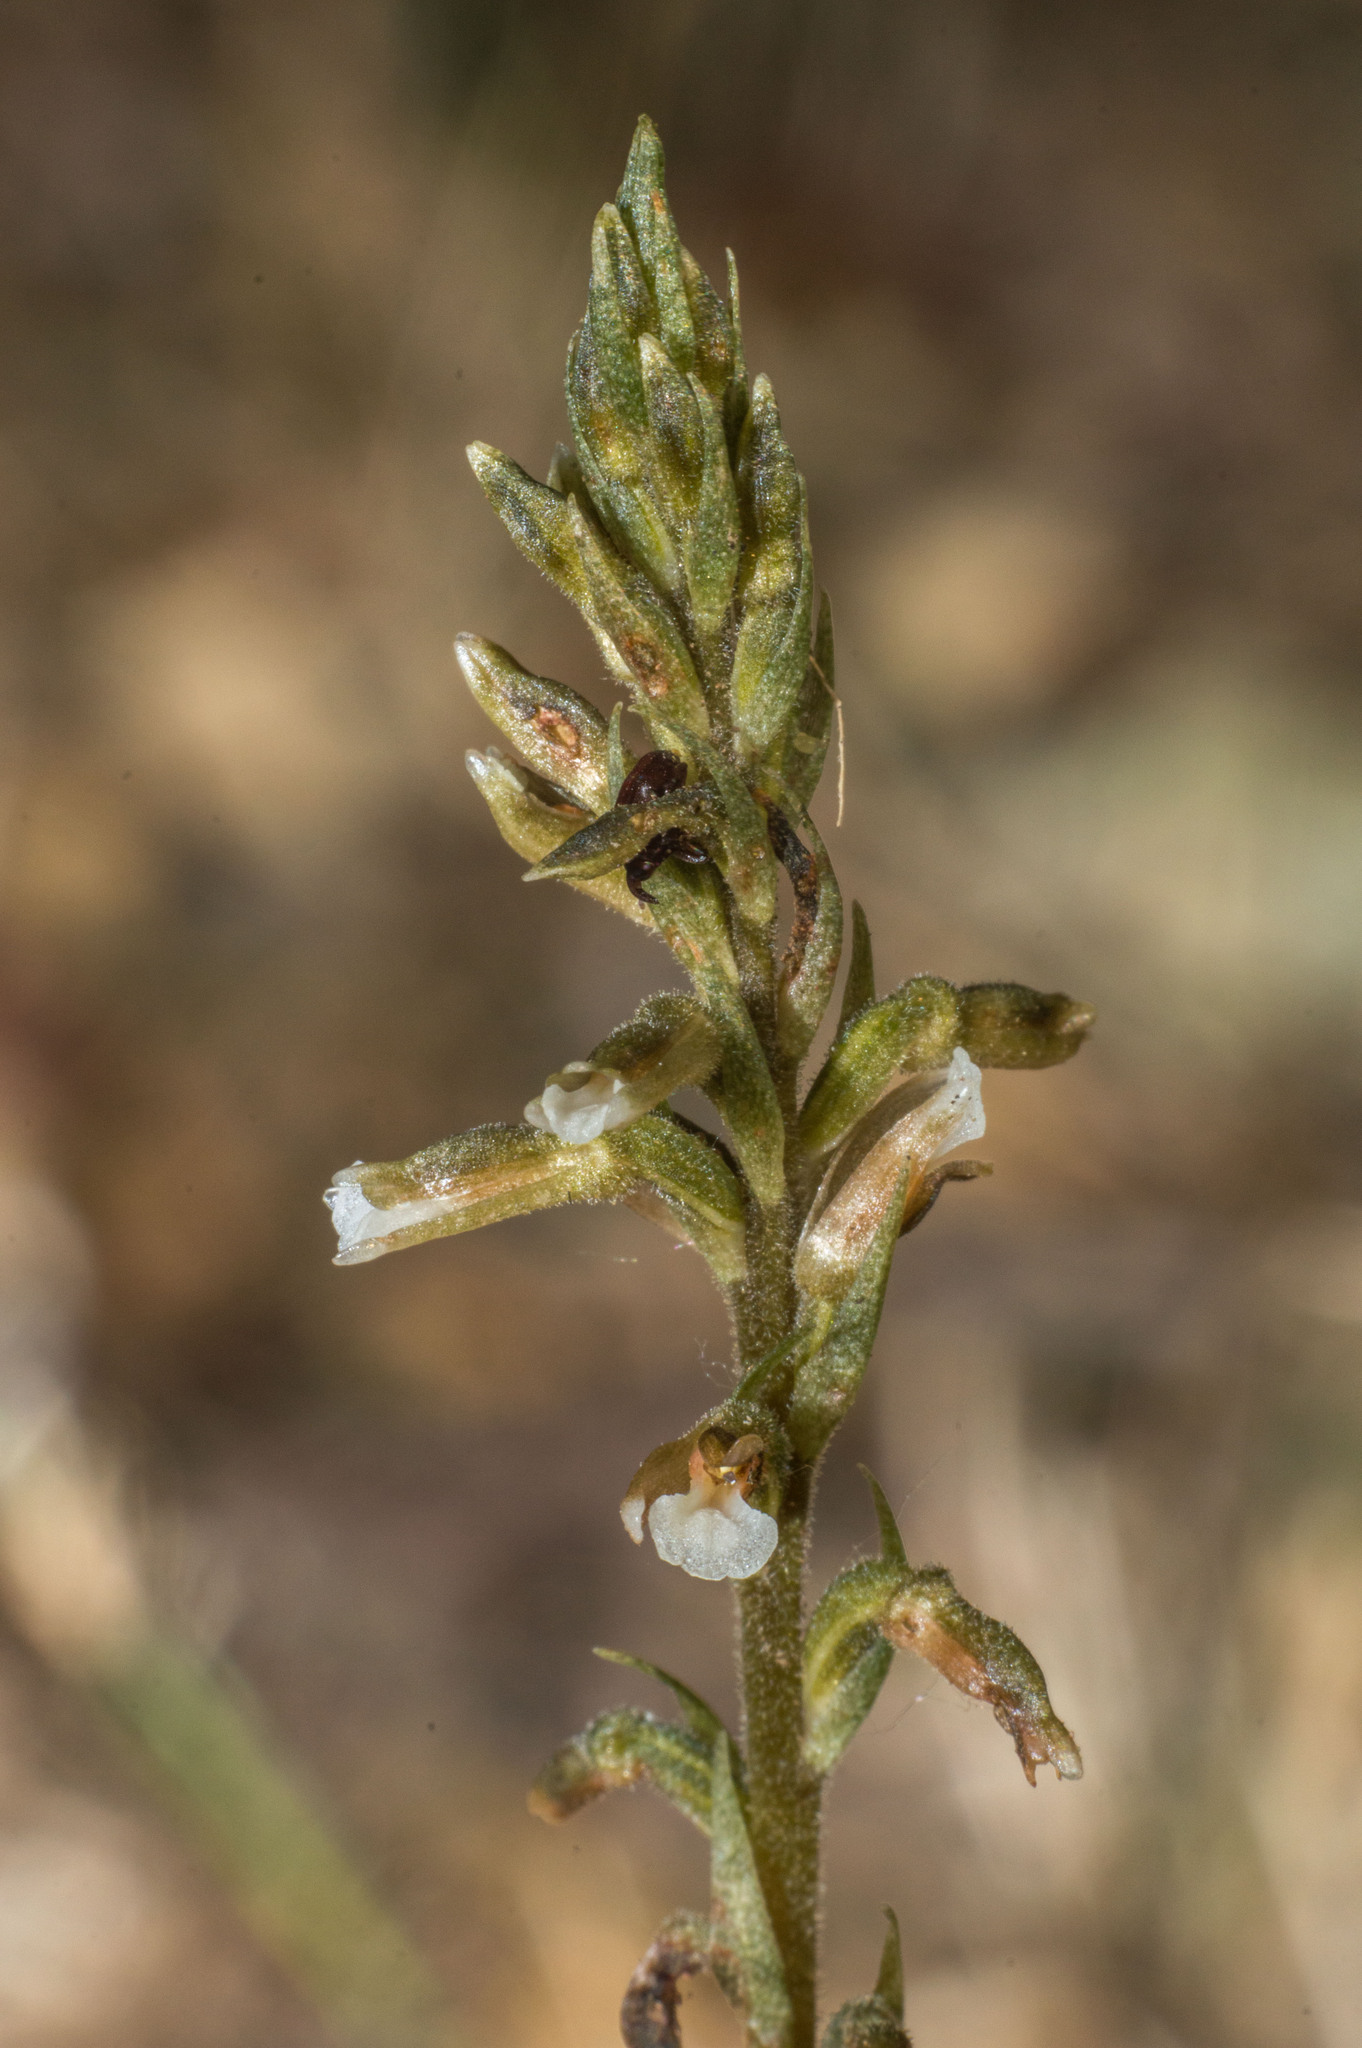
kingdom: Plantae
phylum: Tracheophyta
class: Liliopsida
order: Asparagales
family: Orchidaceae
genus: Cyclopogon
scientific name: Cyclopogon elatus
